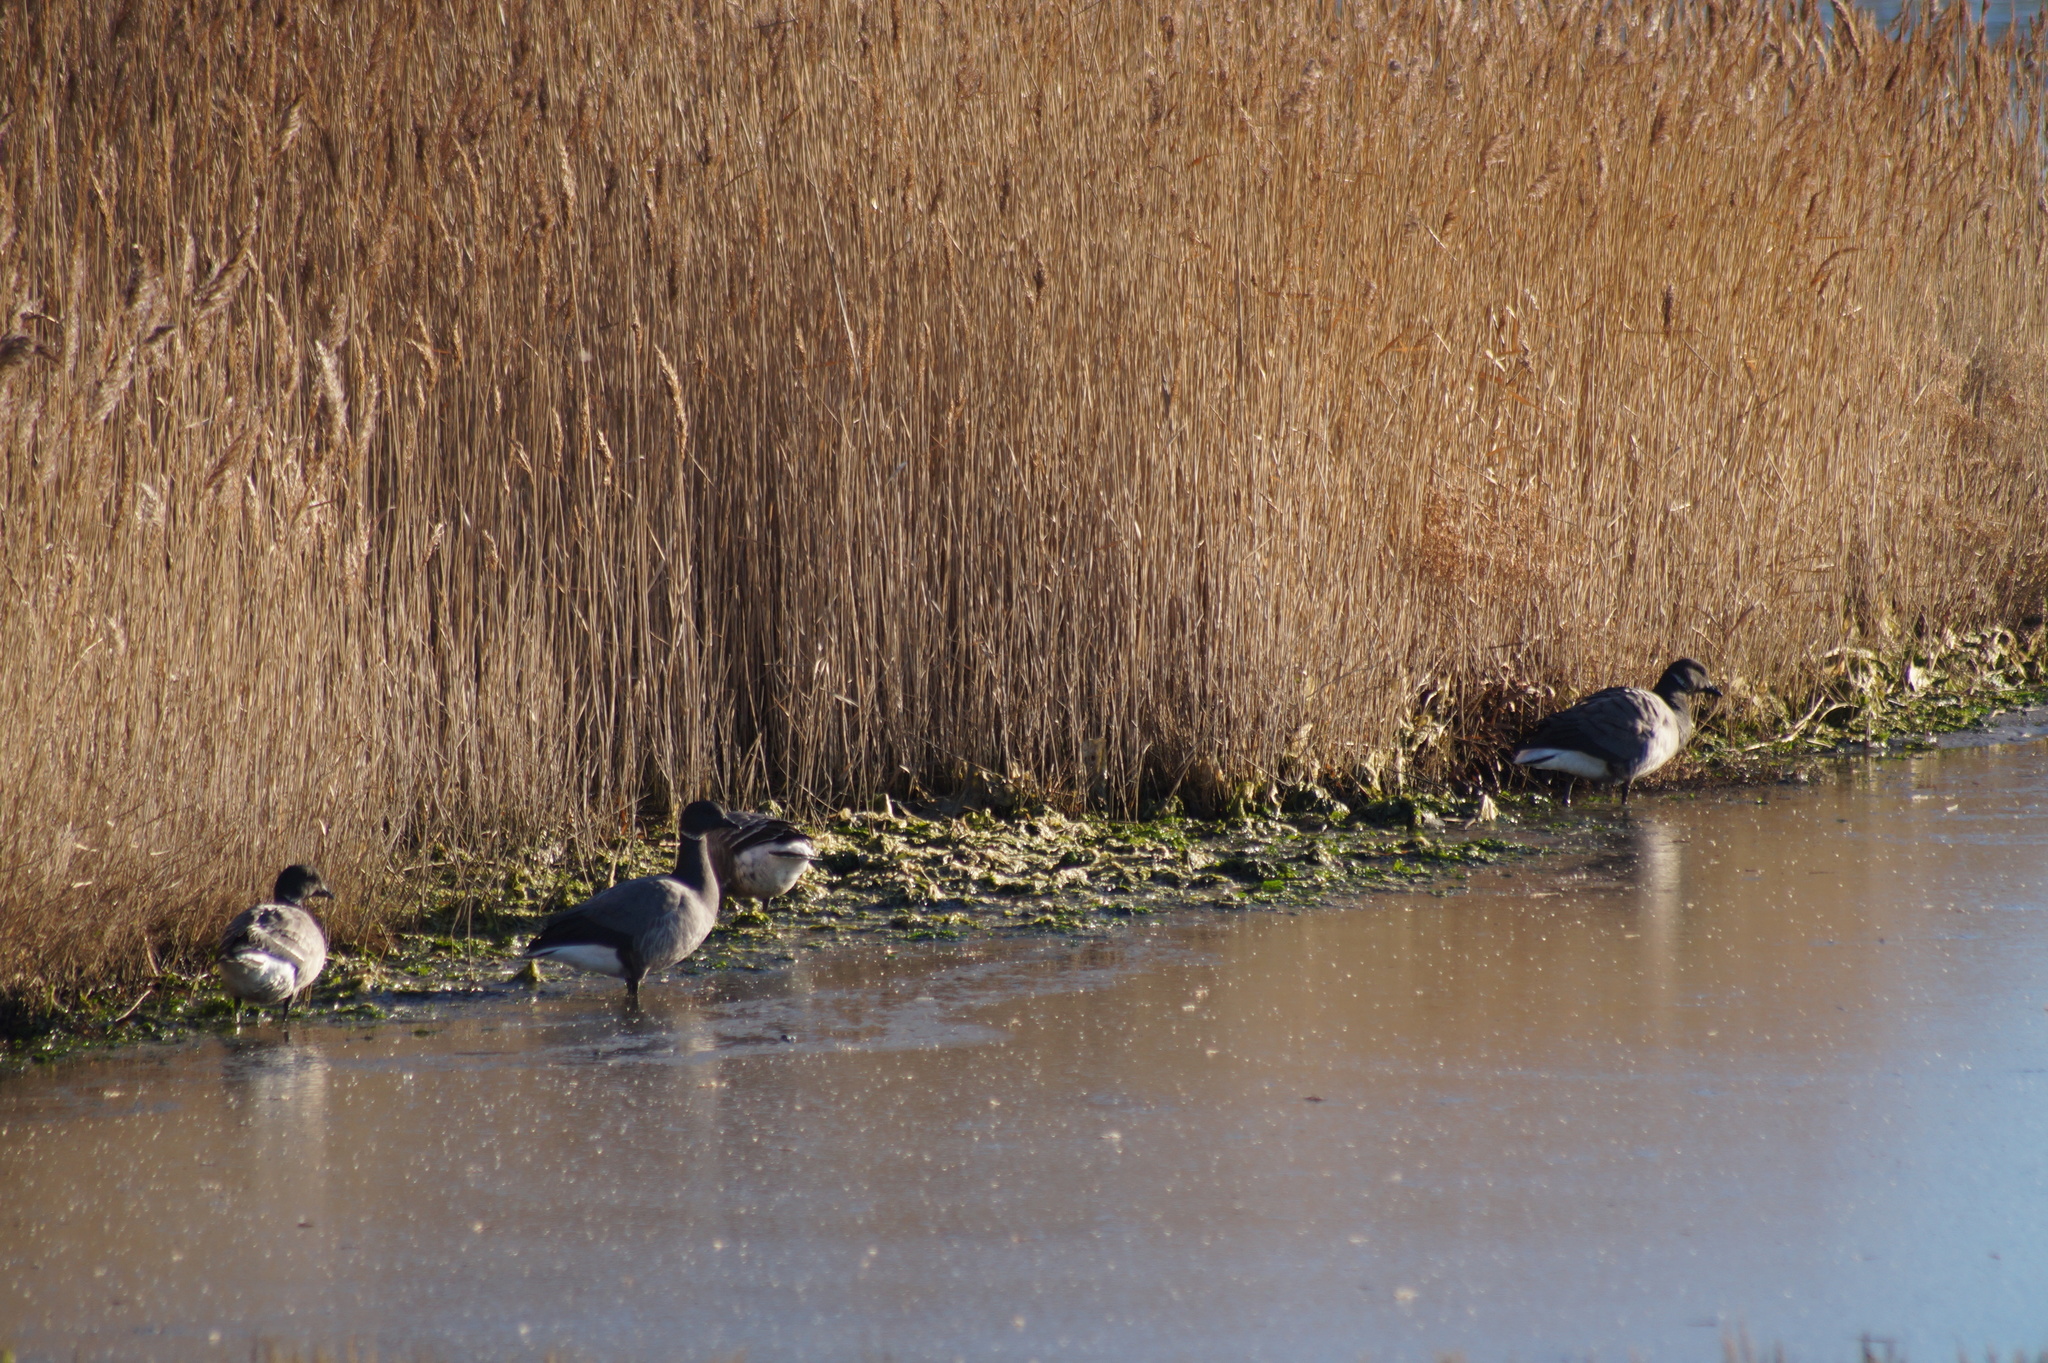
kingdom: Animalia
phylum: Chordata
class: Aves
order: Anseriformes
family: Anatidae
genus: Branta
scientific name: Branta bernicla
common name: Brant goose
